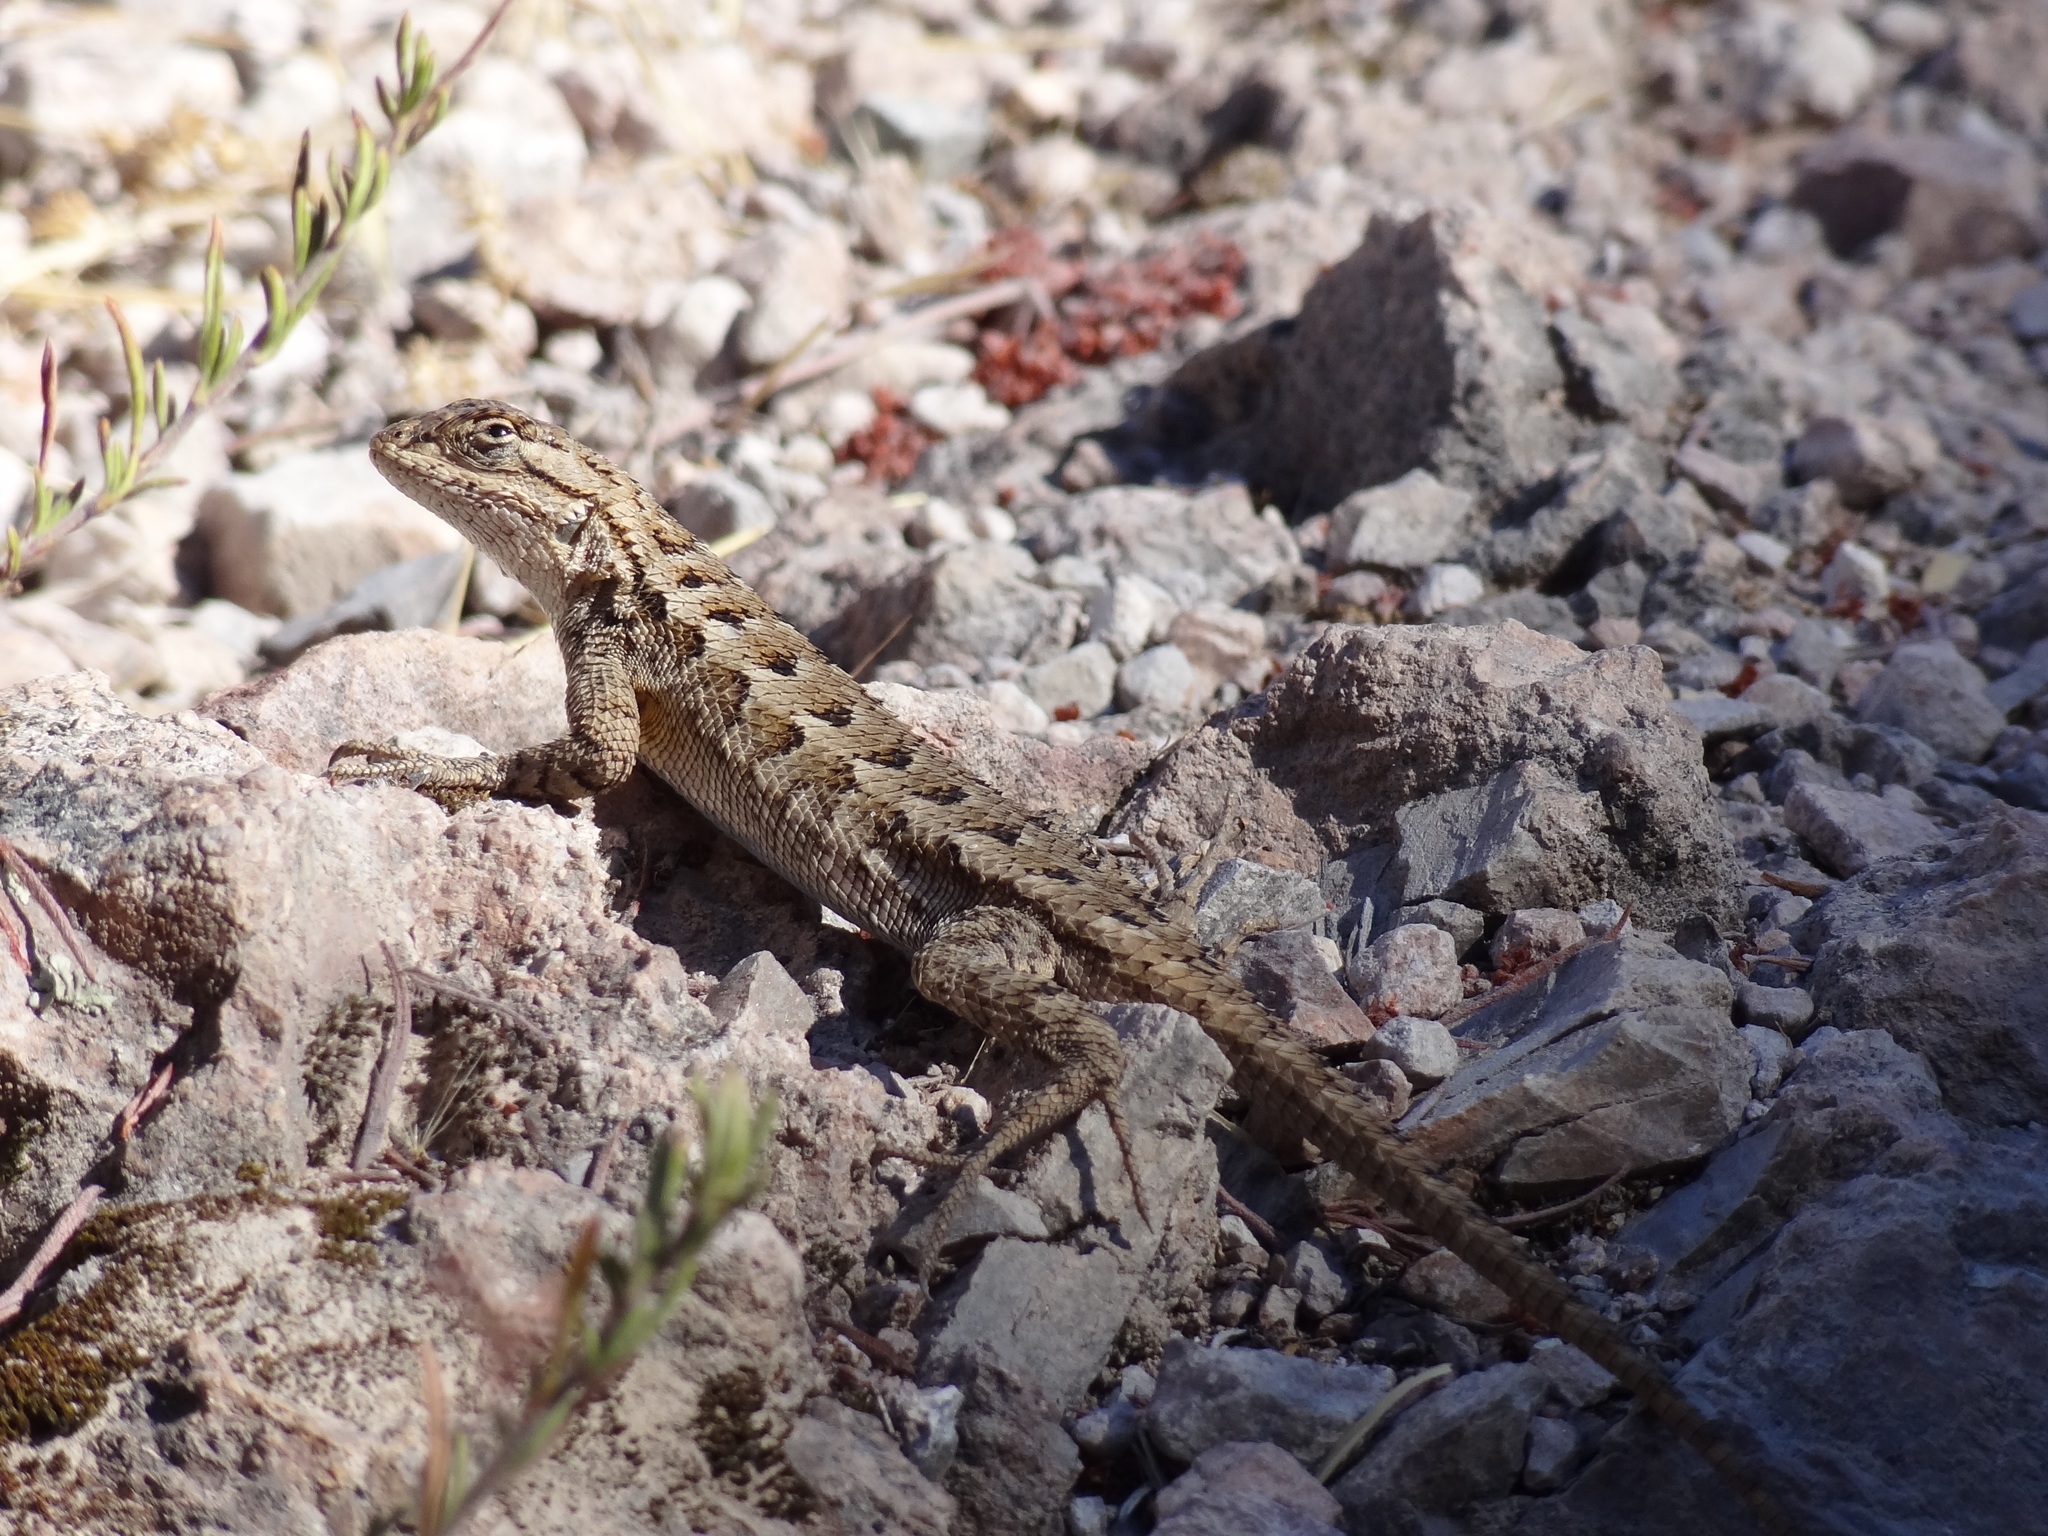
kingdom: Animalia
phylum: Chordata
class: Squamata
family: Phrynosomatidae
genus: Sceloporus
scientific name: Sceloporus occidentalis
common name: Western fence lizard
